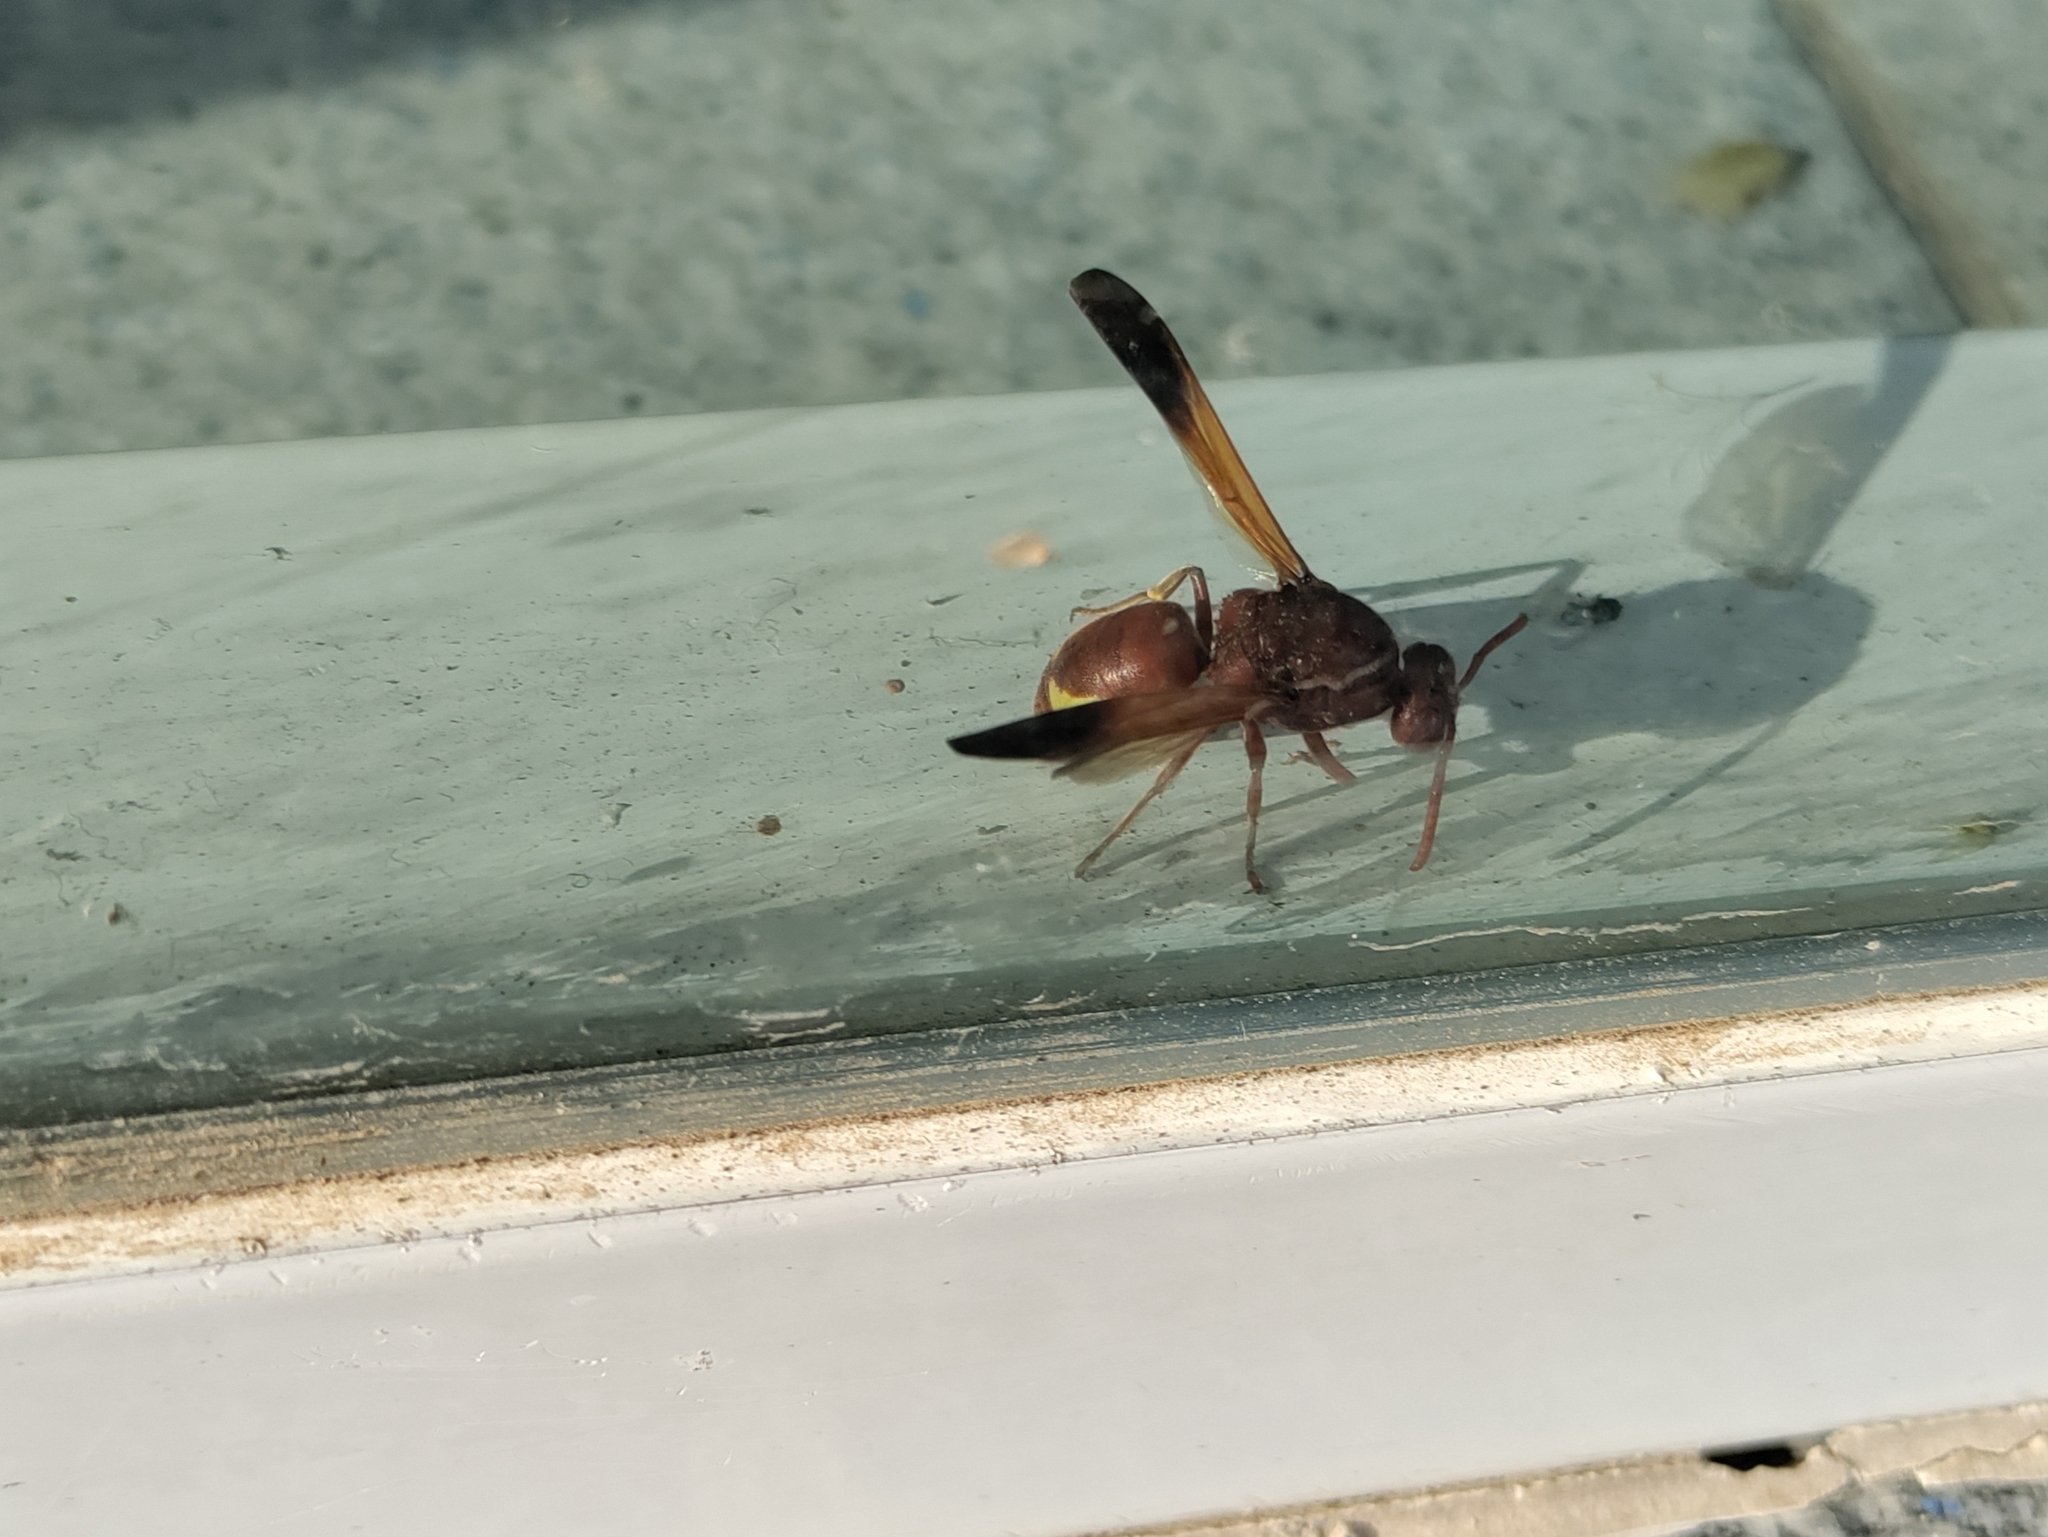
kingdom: Animalia
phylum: Arthropoda
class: Insecta
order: Hymenoptera
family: Eumenidae
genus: Rhynchium
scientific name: Rhynchium oculatum
